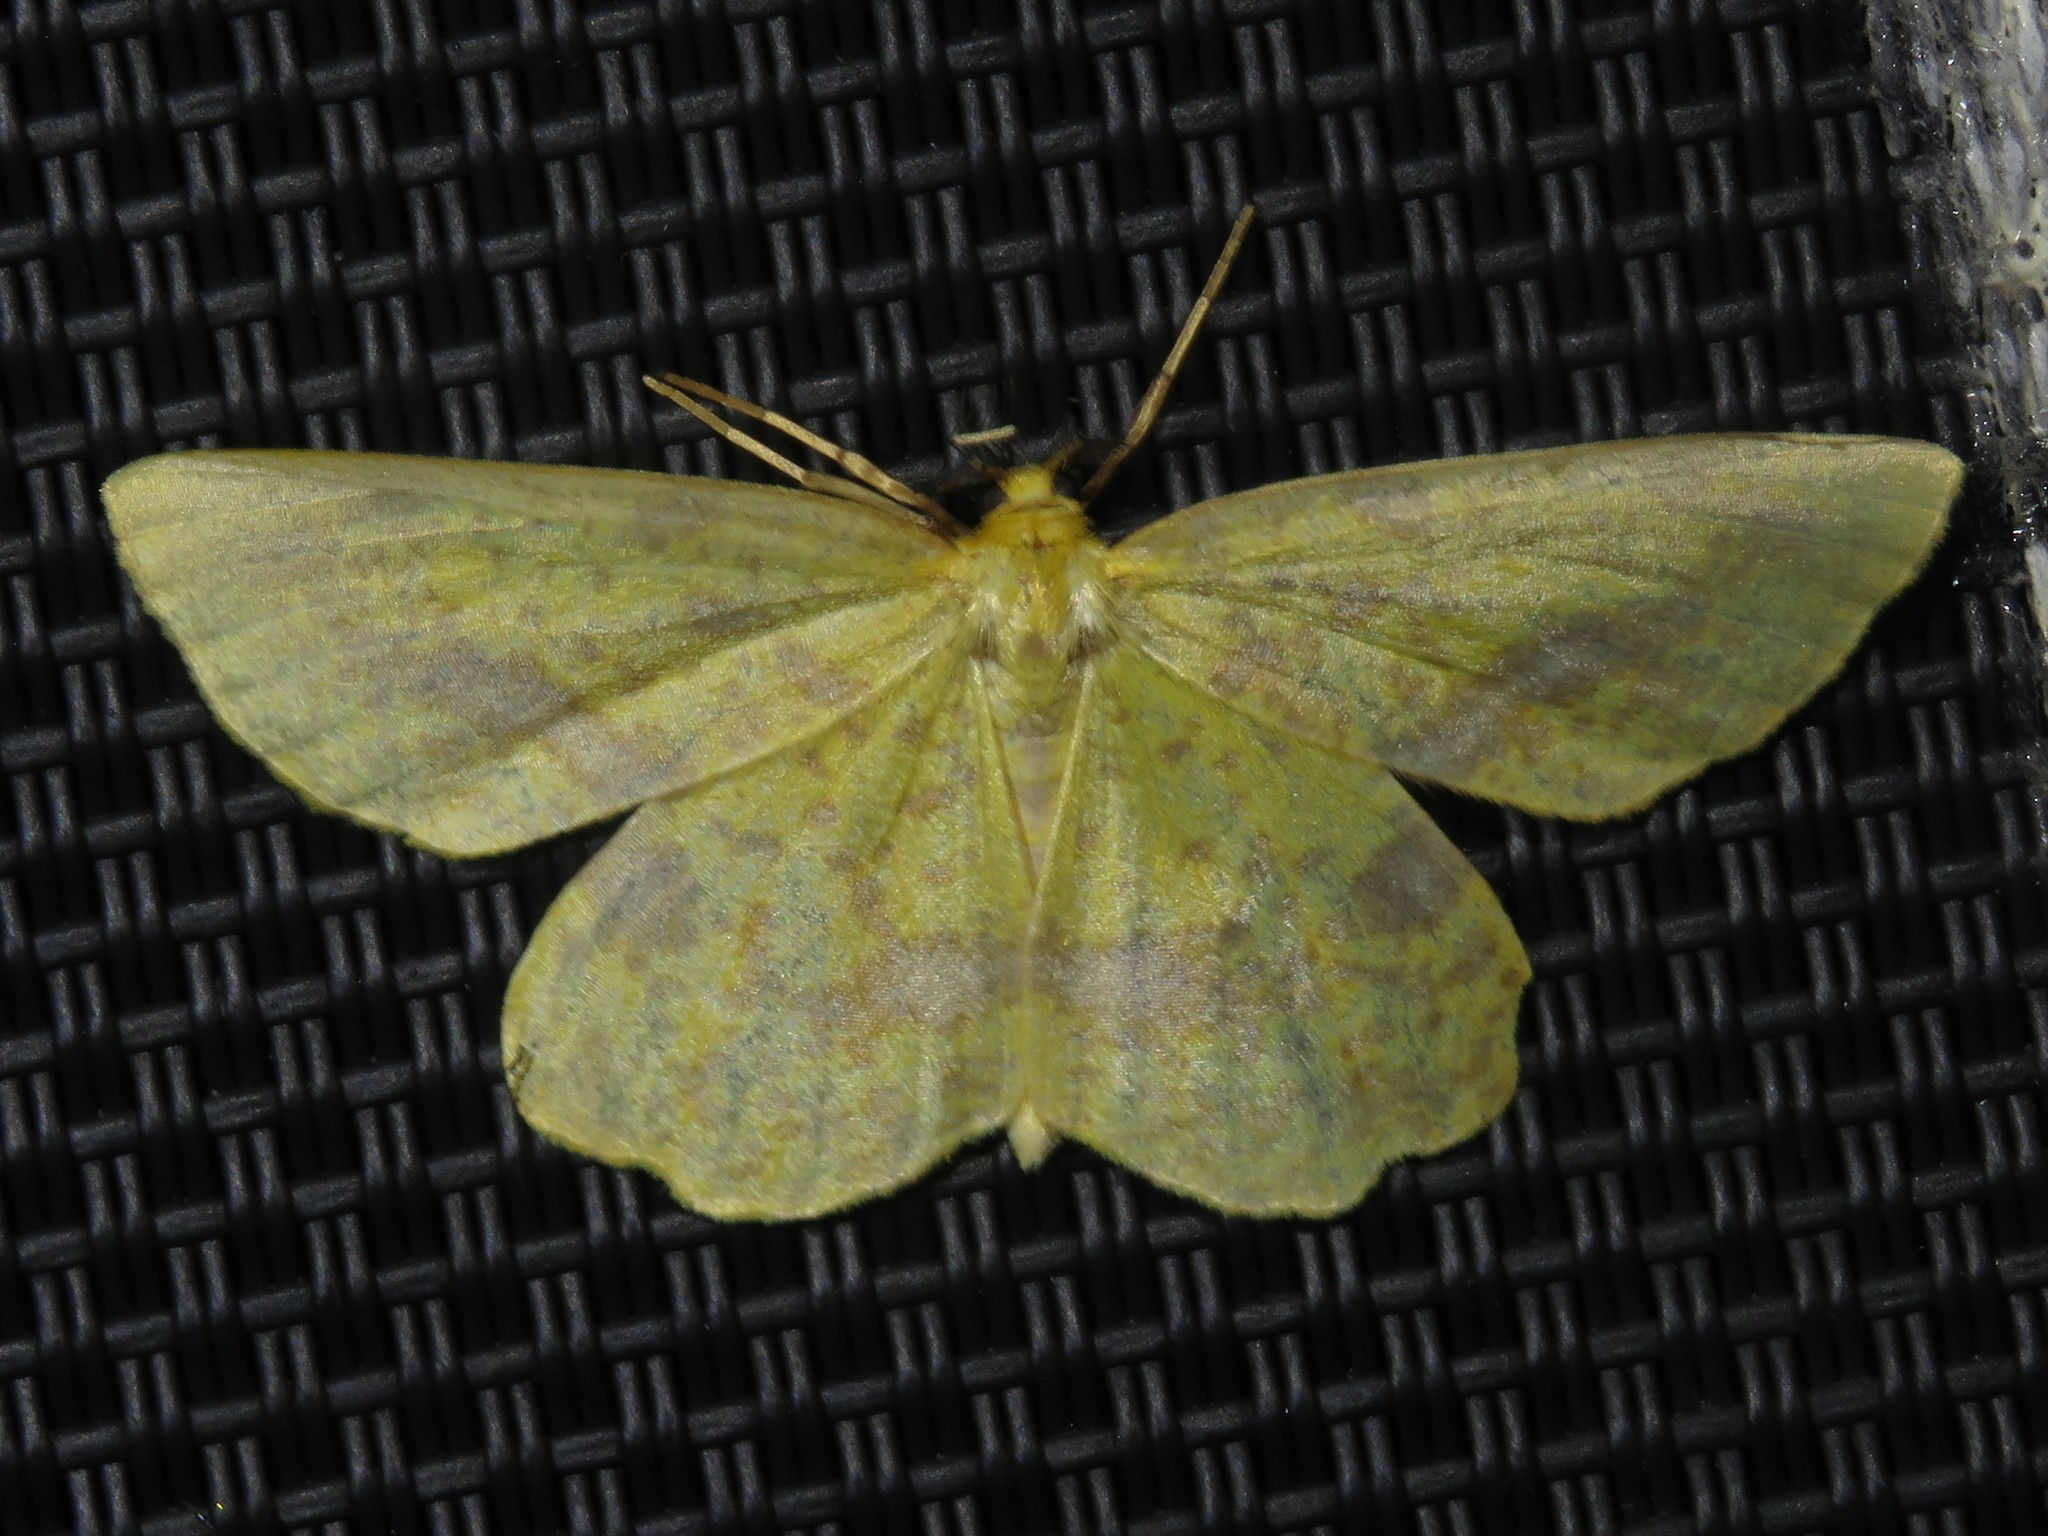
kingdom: Animalia
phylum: Arthropoda
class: Insecta
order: Lepidoptera
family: Geometridae
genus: Xanthotype
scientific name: Xanthotype
